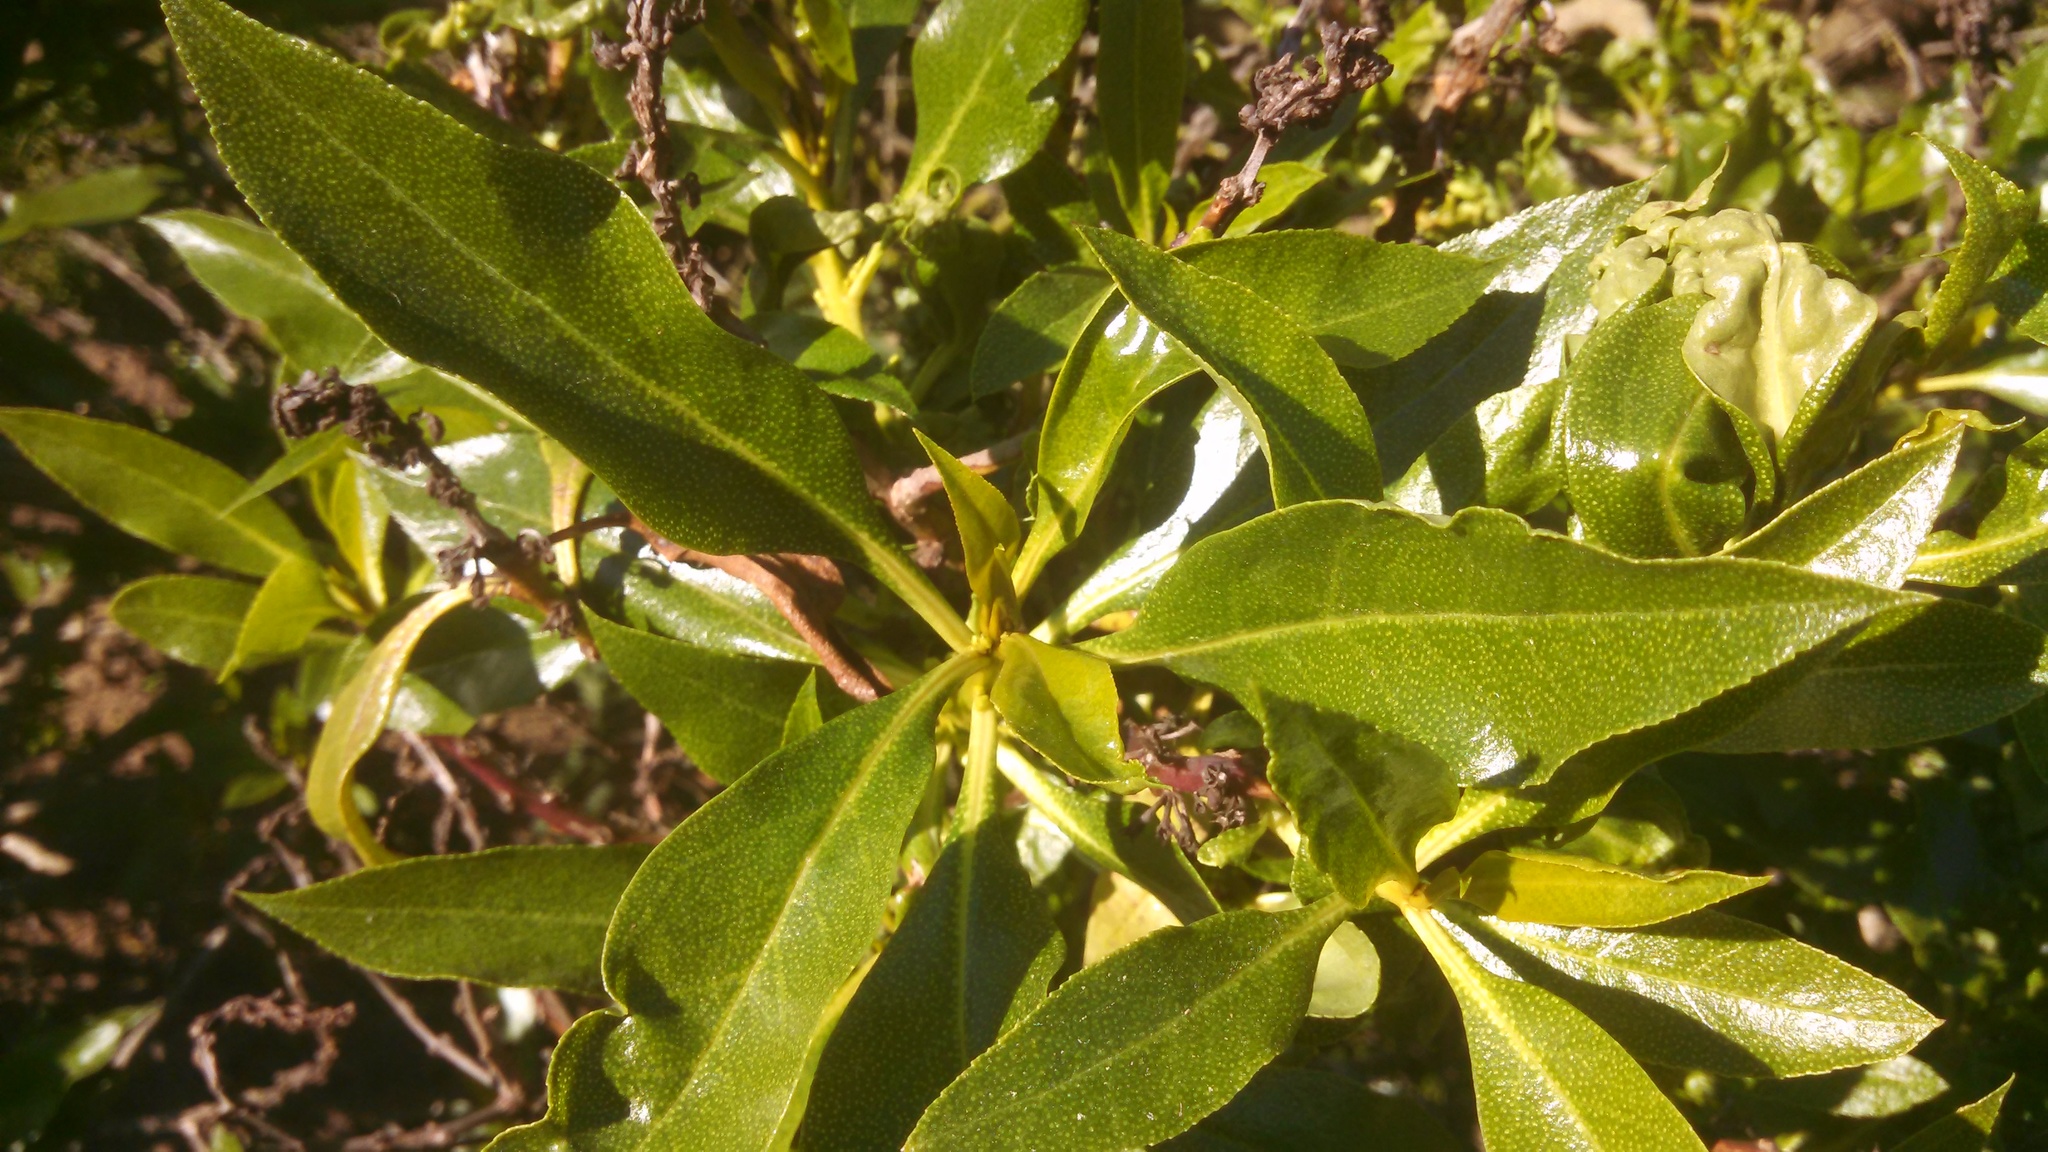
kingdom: Plantae
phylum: Tracheophyta
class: Magnoliopsida
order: Lamiales
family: Scrophulariaceae
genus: Myoporum
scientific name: Myoporum laetum
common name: Ngaio tree
